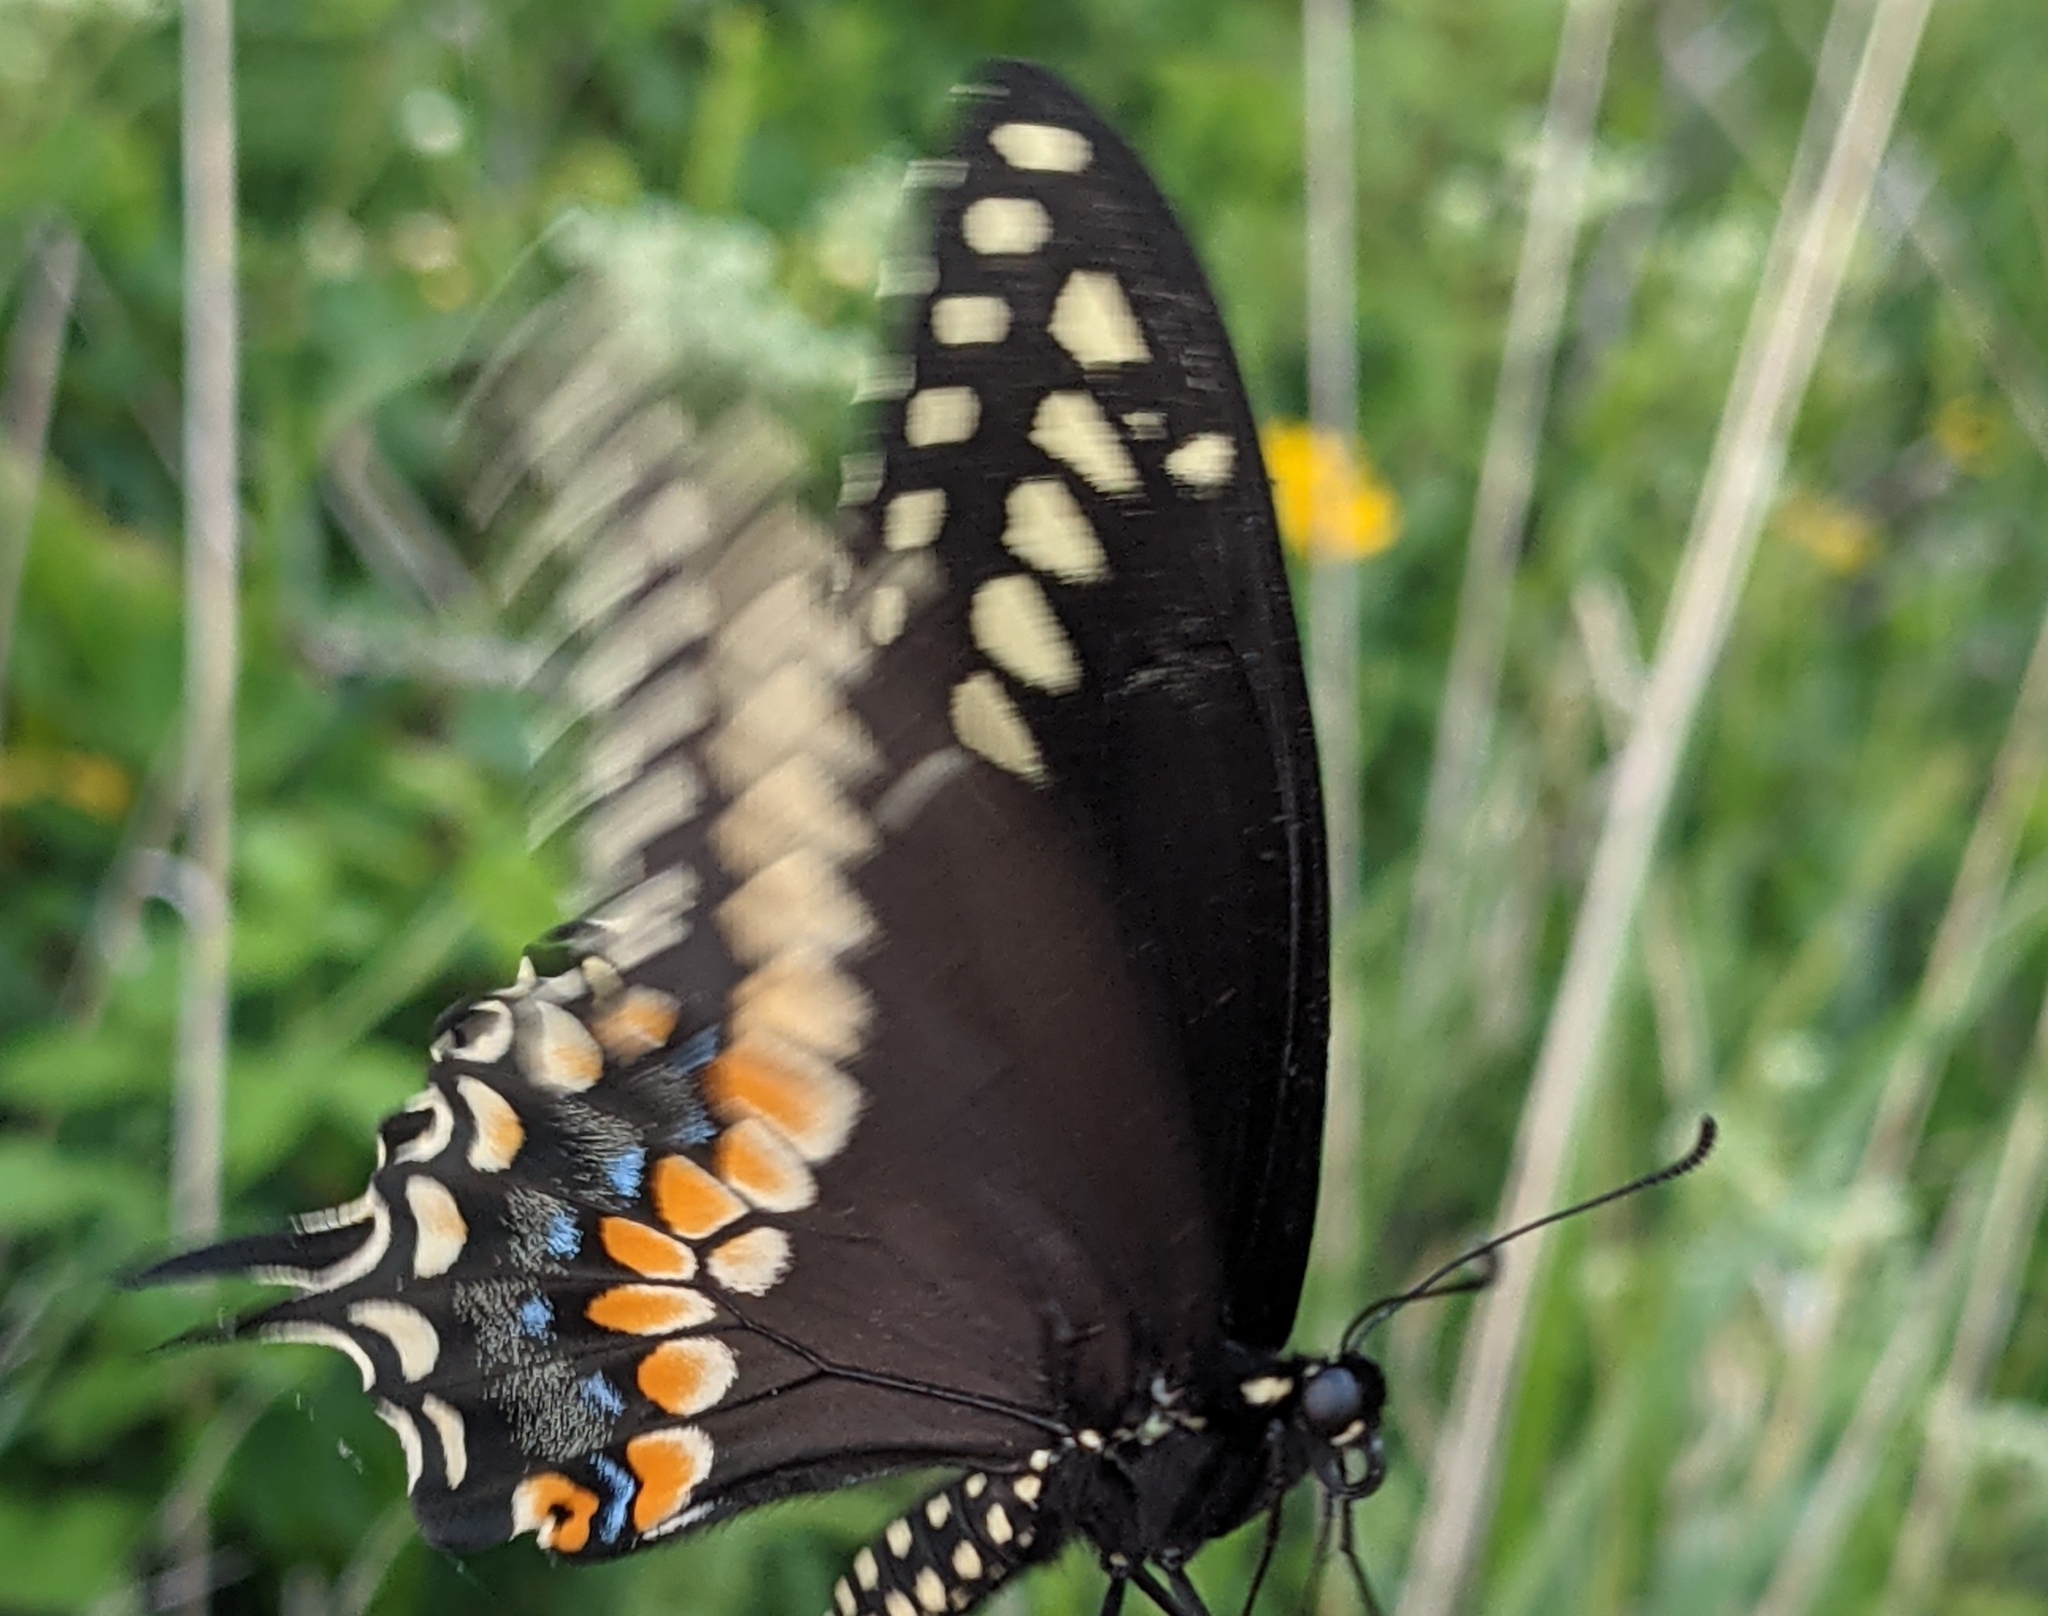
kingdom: Animalia
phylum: Arthropoda
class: Insecta
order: Lepidoptera
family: Papilionidae
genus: Papilio
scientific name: Papilio polyxenes
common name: Black swallowtail
